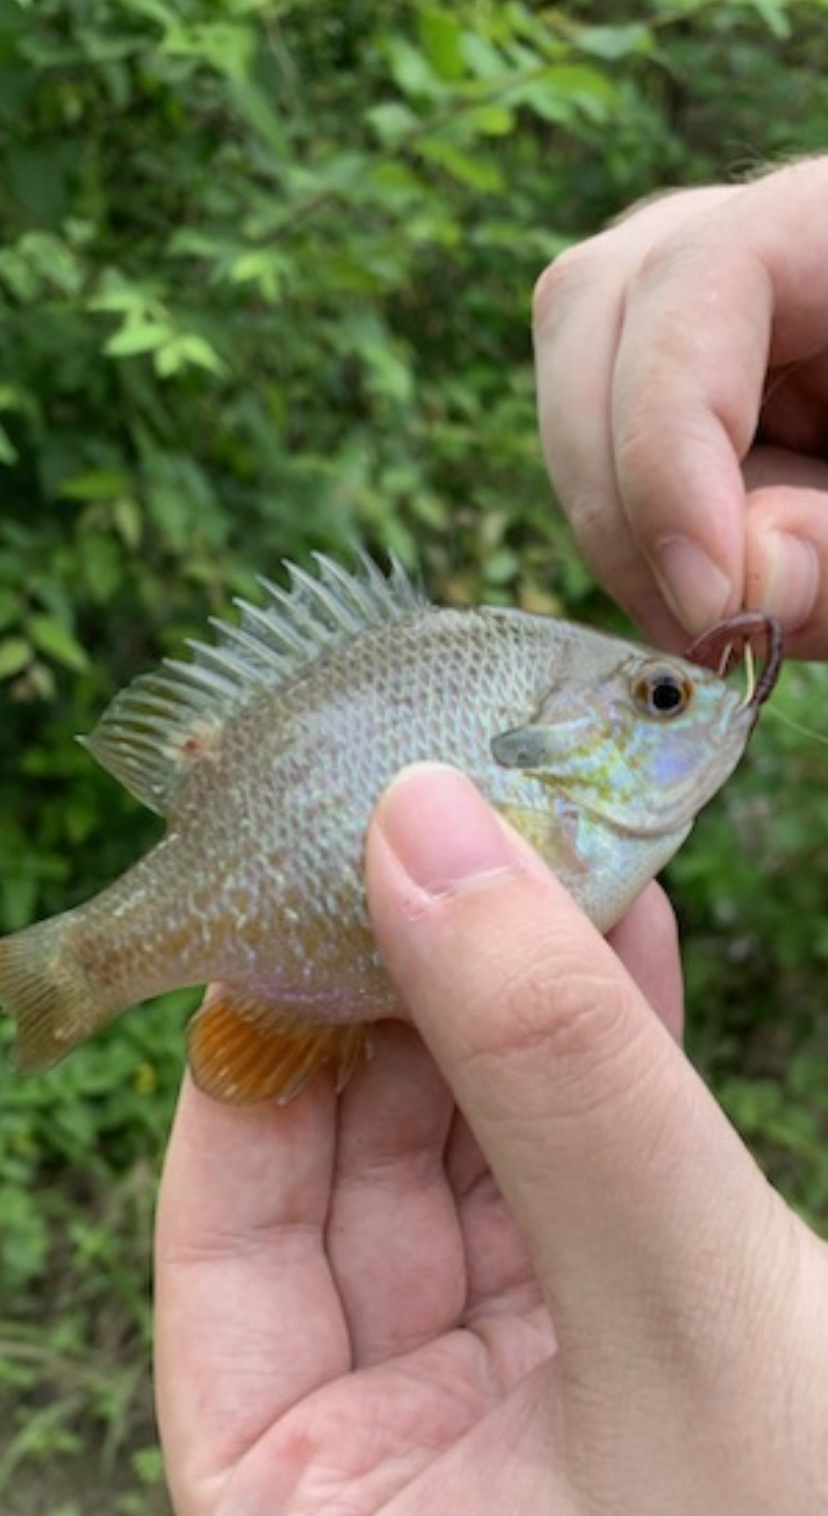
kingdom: Animalia
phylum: Chordata
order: Perciformes
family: Centrarchidae
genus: Lepomis
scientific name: Lepomis aquilensis
